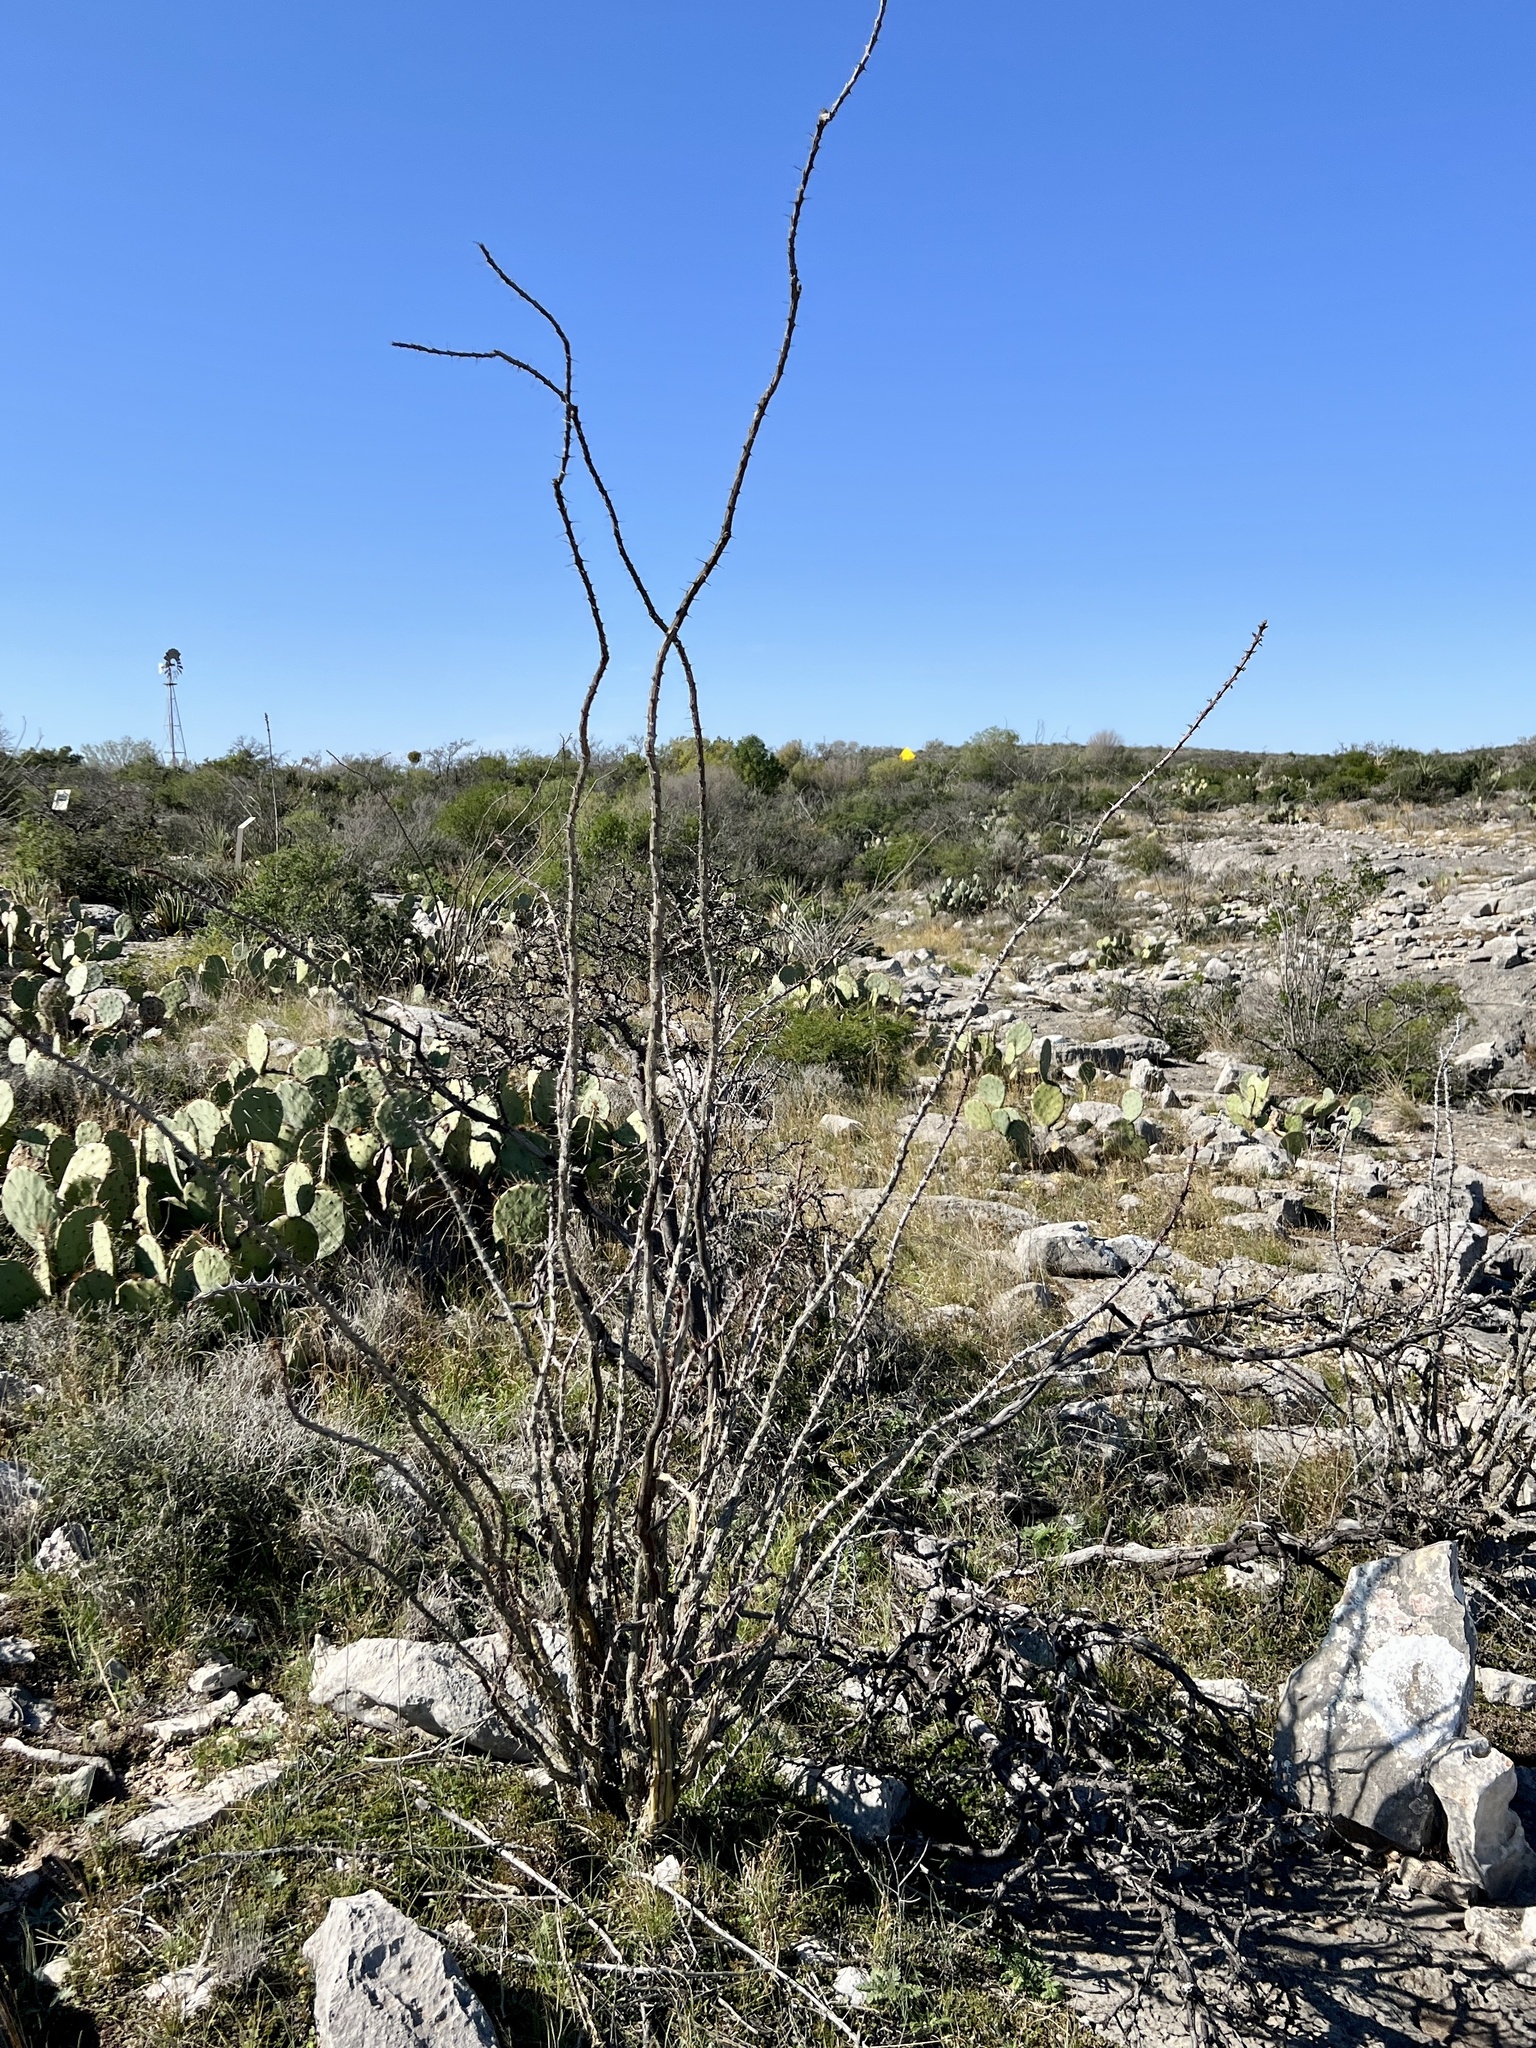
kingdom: Plantae
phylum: Tracheophyta
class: Magnoliopsida
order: Ericales
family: Fouquieriaceae
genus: Fouquieria
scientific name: Fouquieria splendens
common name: Vine-cactus
